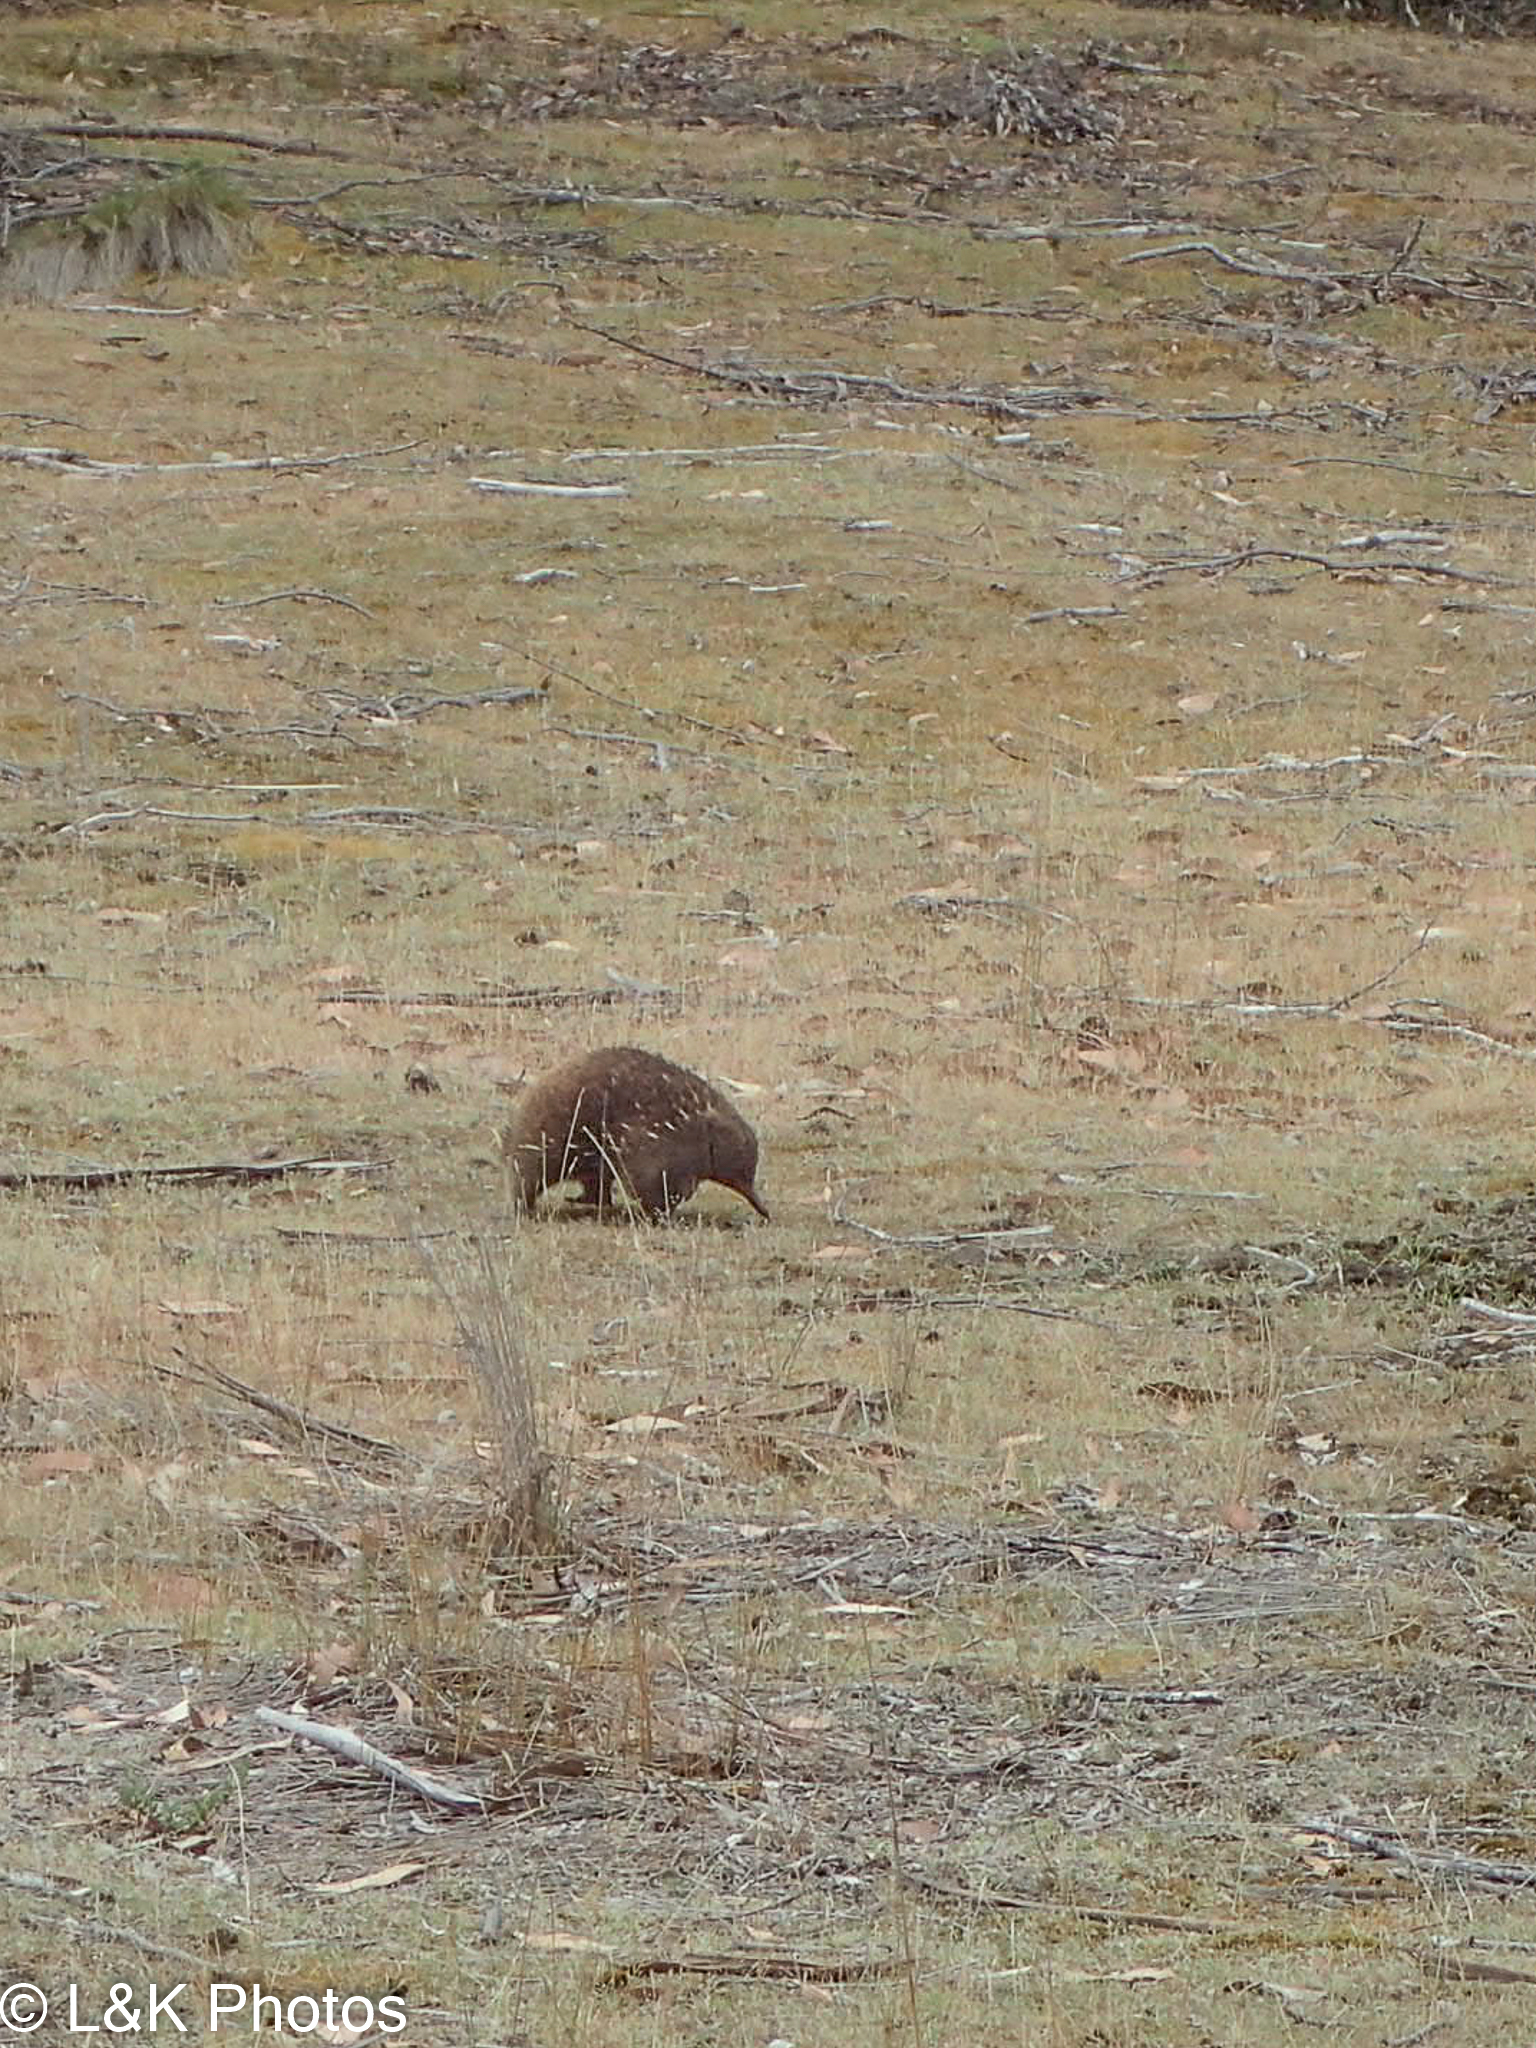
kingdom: Animalia
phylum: Chordata
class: Mammalia
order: Monotremata
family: Tachyglossidae
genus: Tachyglossus
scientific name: Tachyglossus aculeatus
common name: Short-beaked echidna
